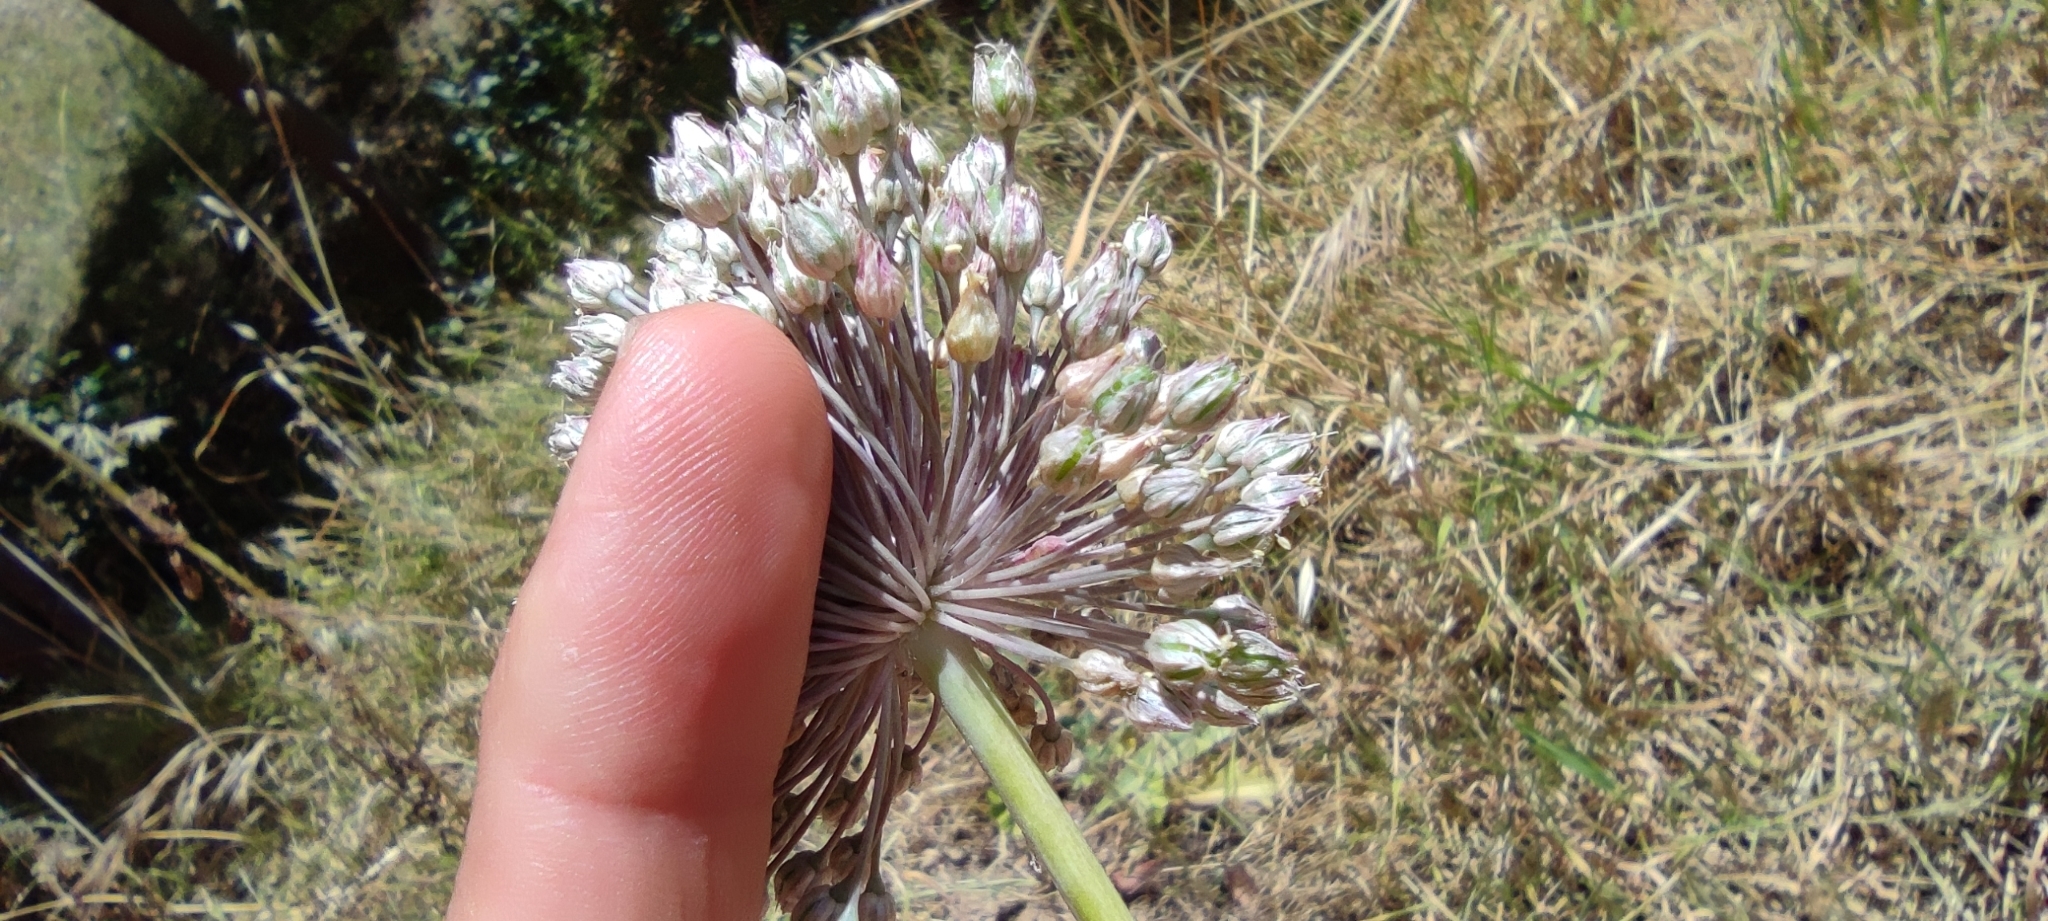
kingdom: Plantae
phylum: Tracheophyta
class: Liliopsida
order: Asparagales
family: Amaryllidaceae
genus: Allium
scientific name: Allium ampeloprasum
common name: Wild leek
